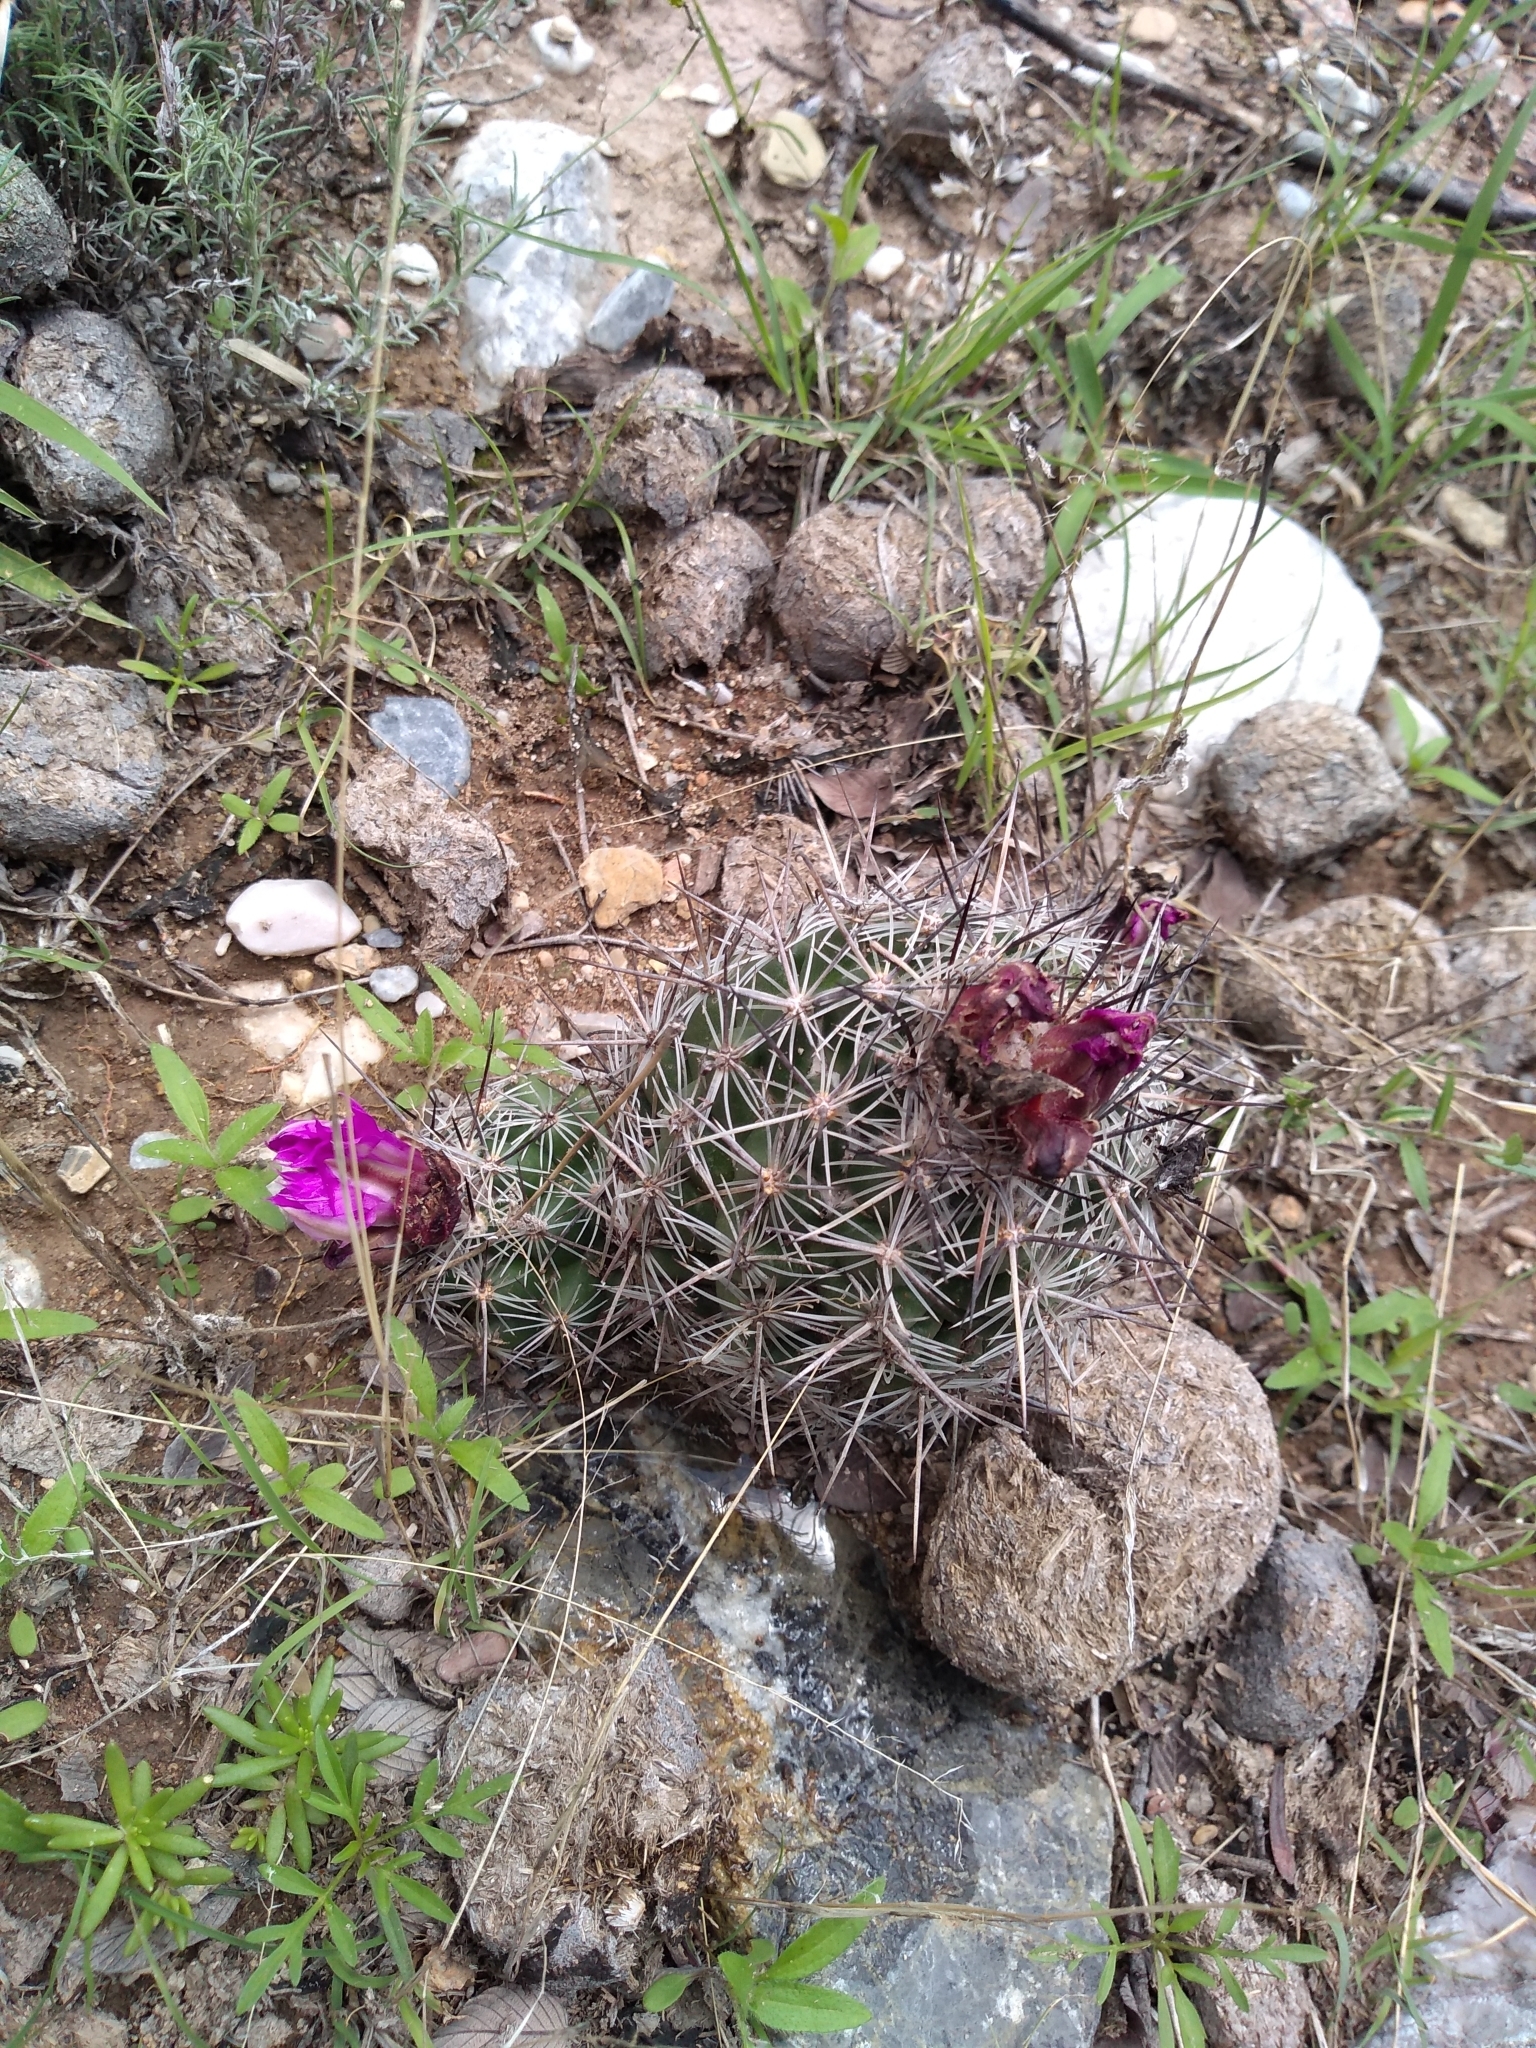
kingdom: Plantae
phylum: Tracheophyta
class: Magnoliopsida
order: Caryophyllales
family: Cactaceae
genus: Cochemiea
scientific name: Cochemiea conoidea
